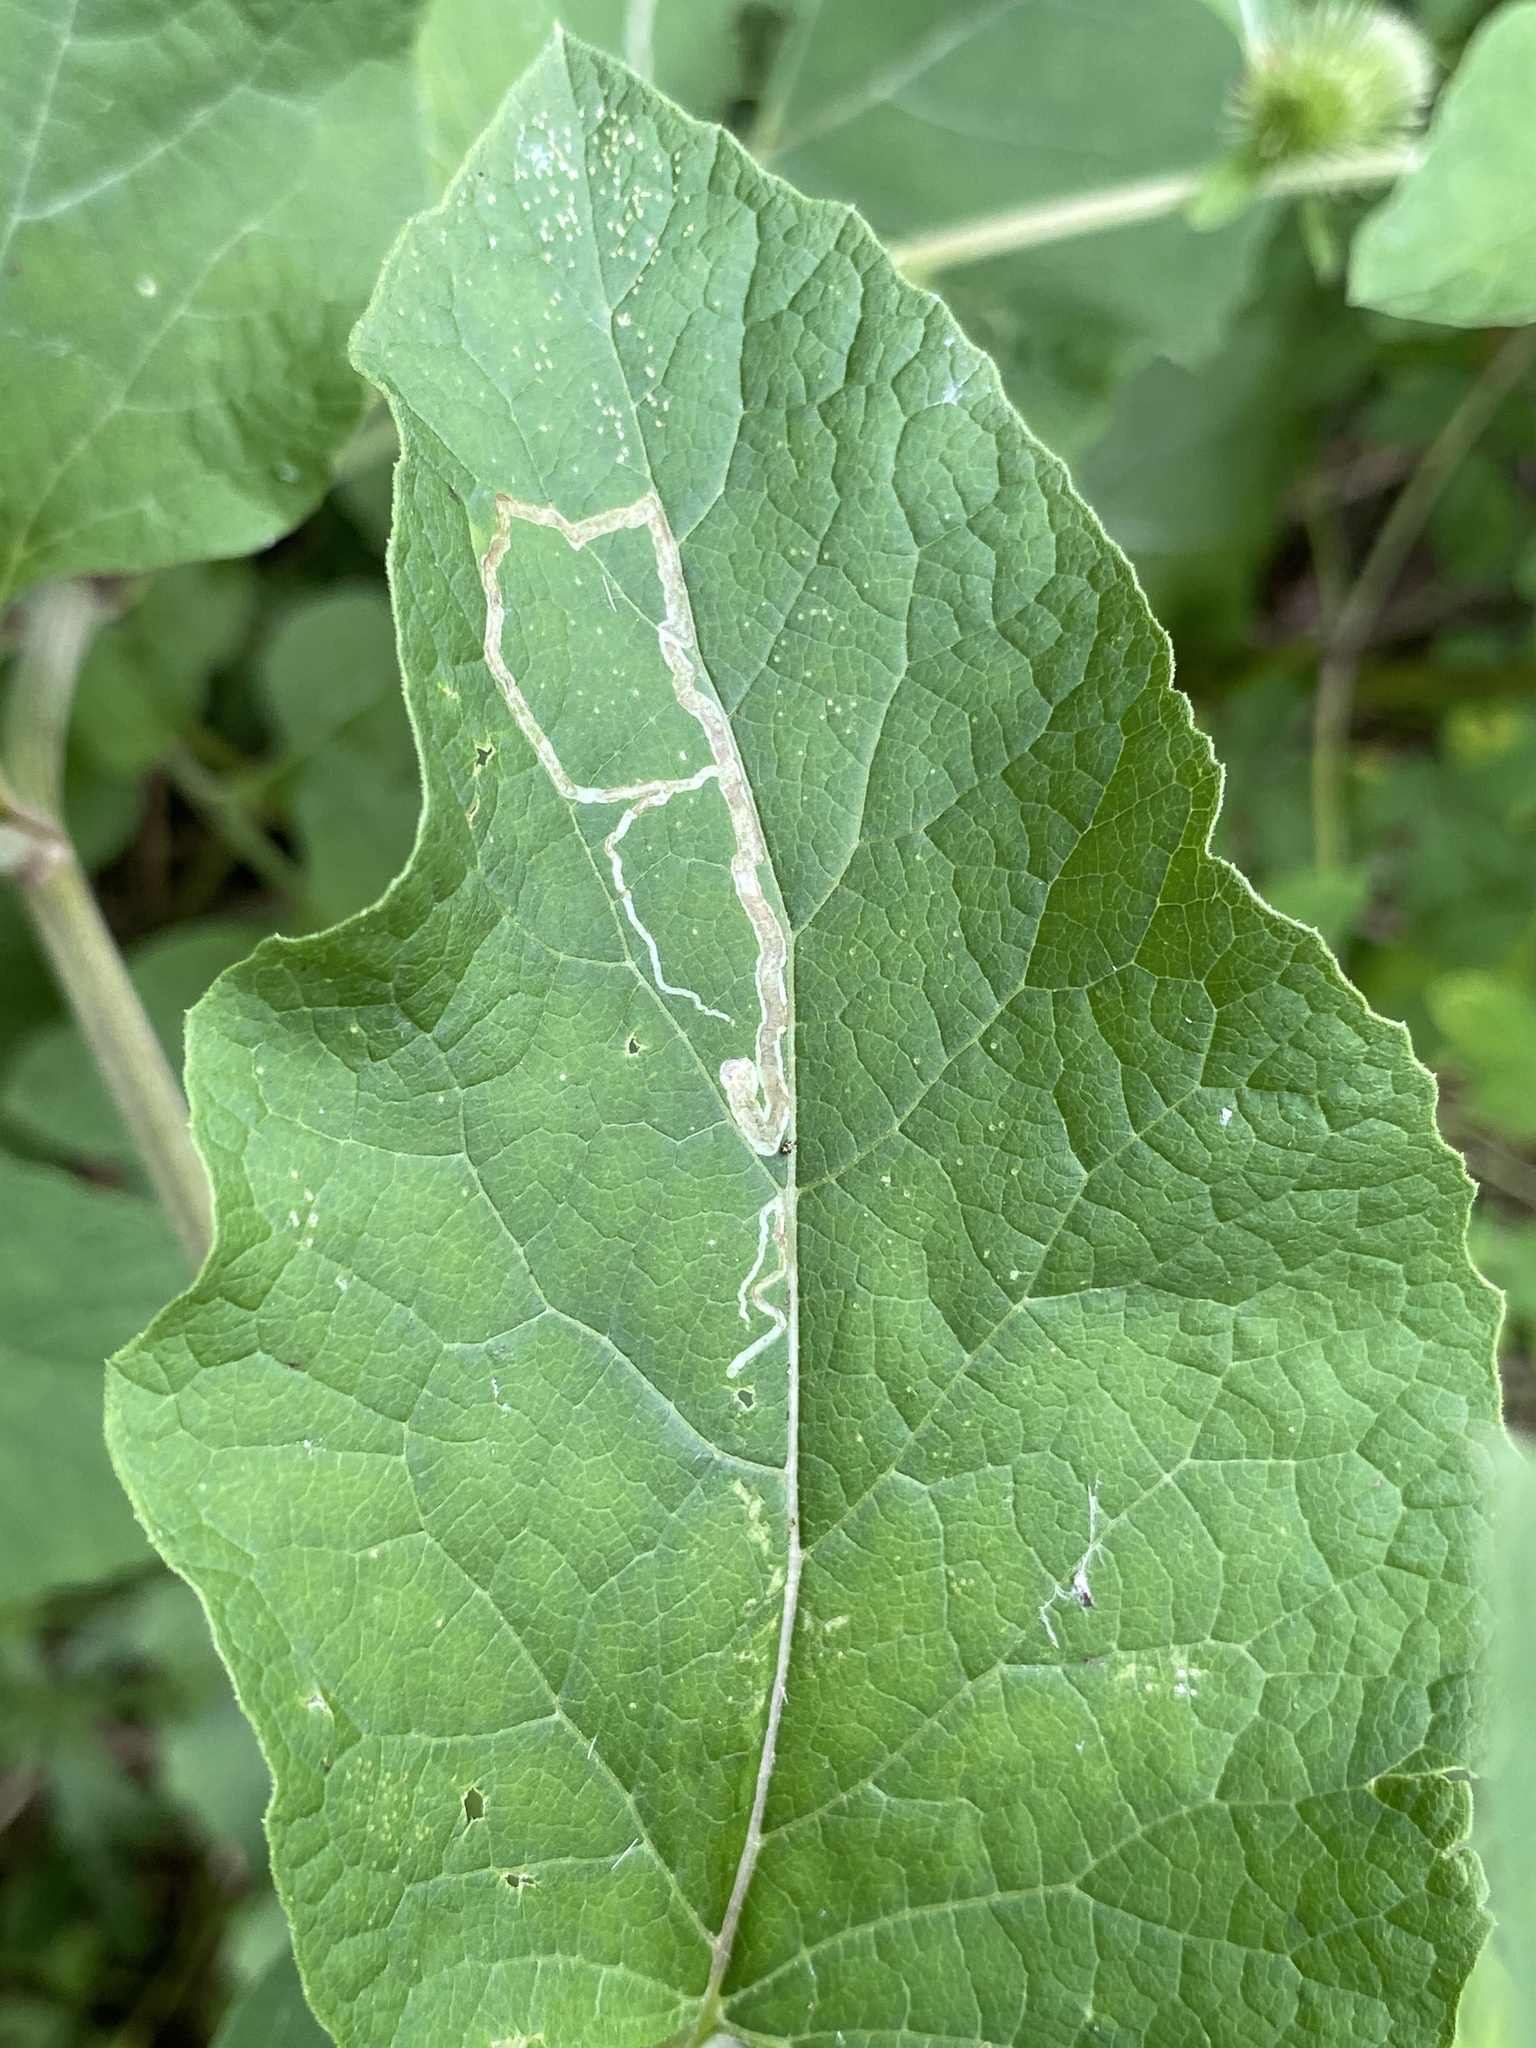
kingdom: Animalia
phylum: Arthropoda
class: Insecta
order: Diptera
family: Agromyzidae
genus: Liriomyza
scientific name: Liriomyza arctii
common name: Burdock leafminer
